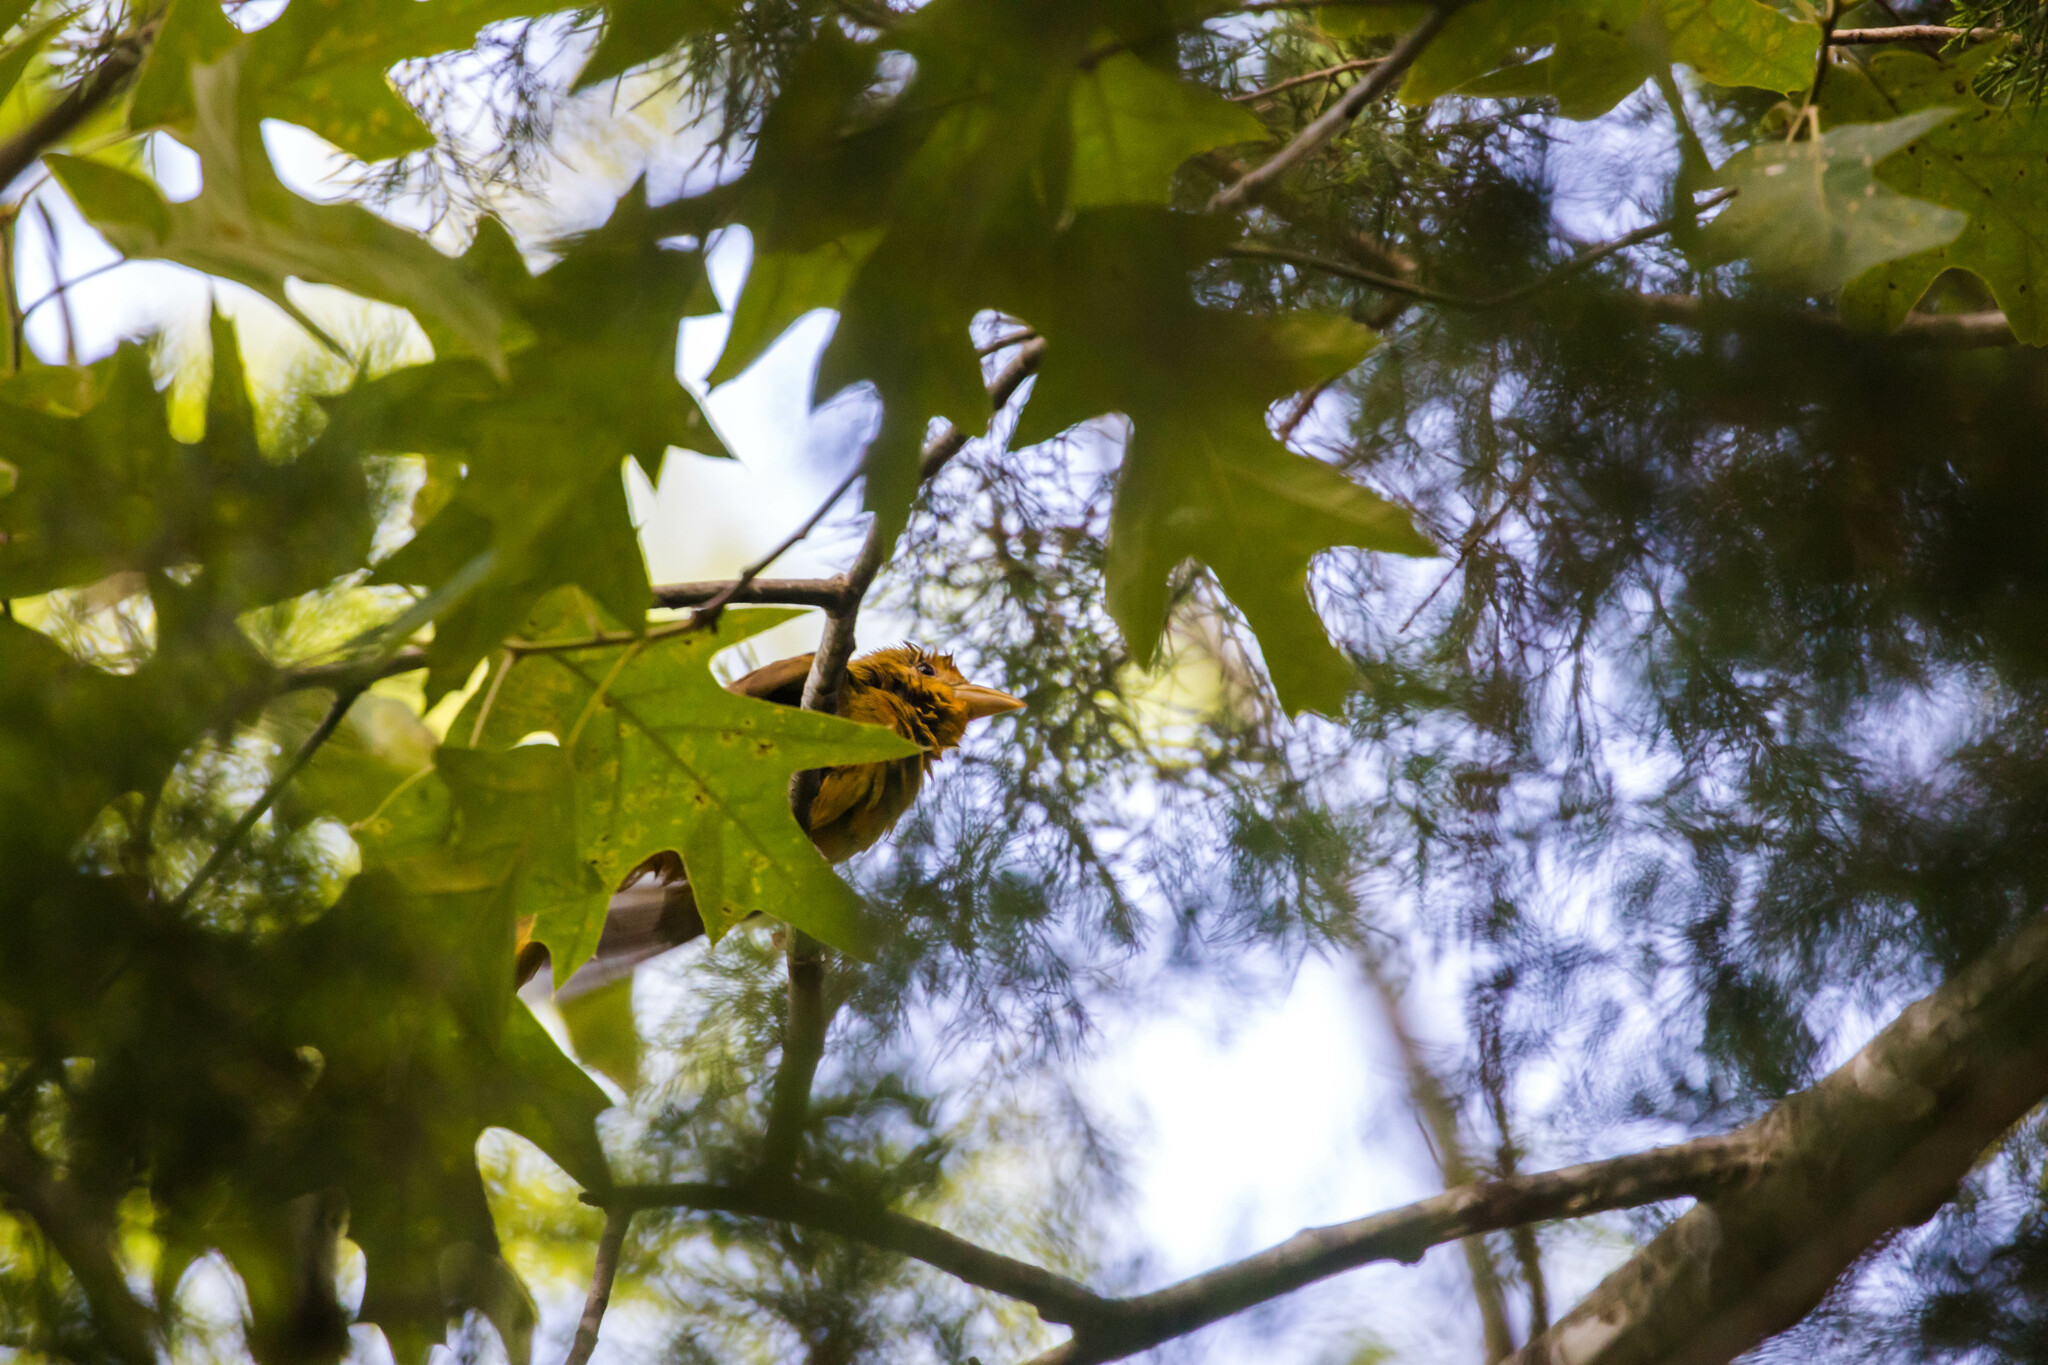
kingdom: Animalia
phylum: Chordata
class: Aves
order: Passeriformes
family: Cardinalidae
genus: Piranga
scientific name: Piranga rubra
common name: Summer tanager
